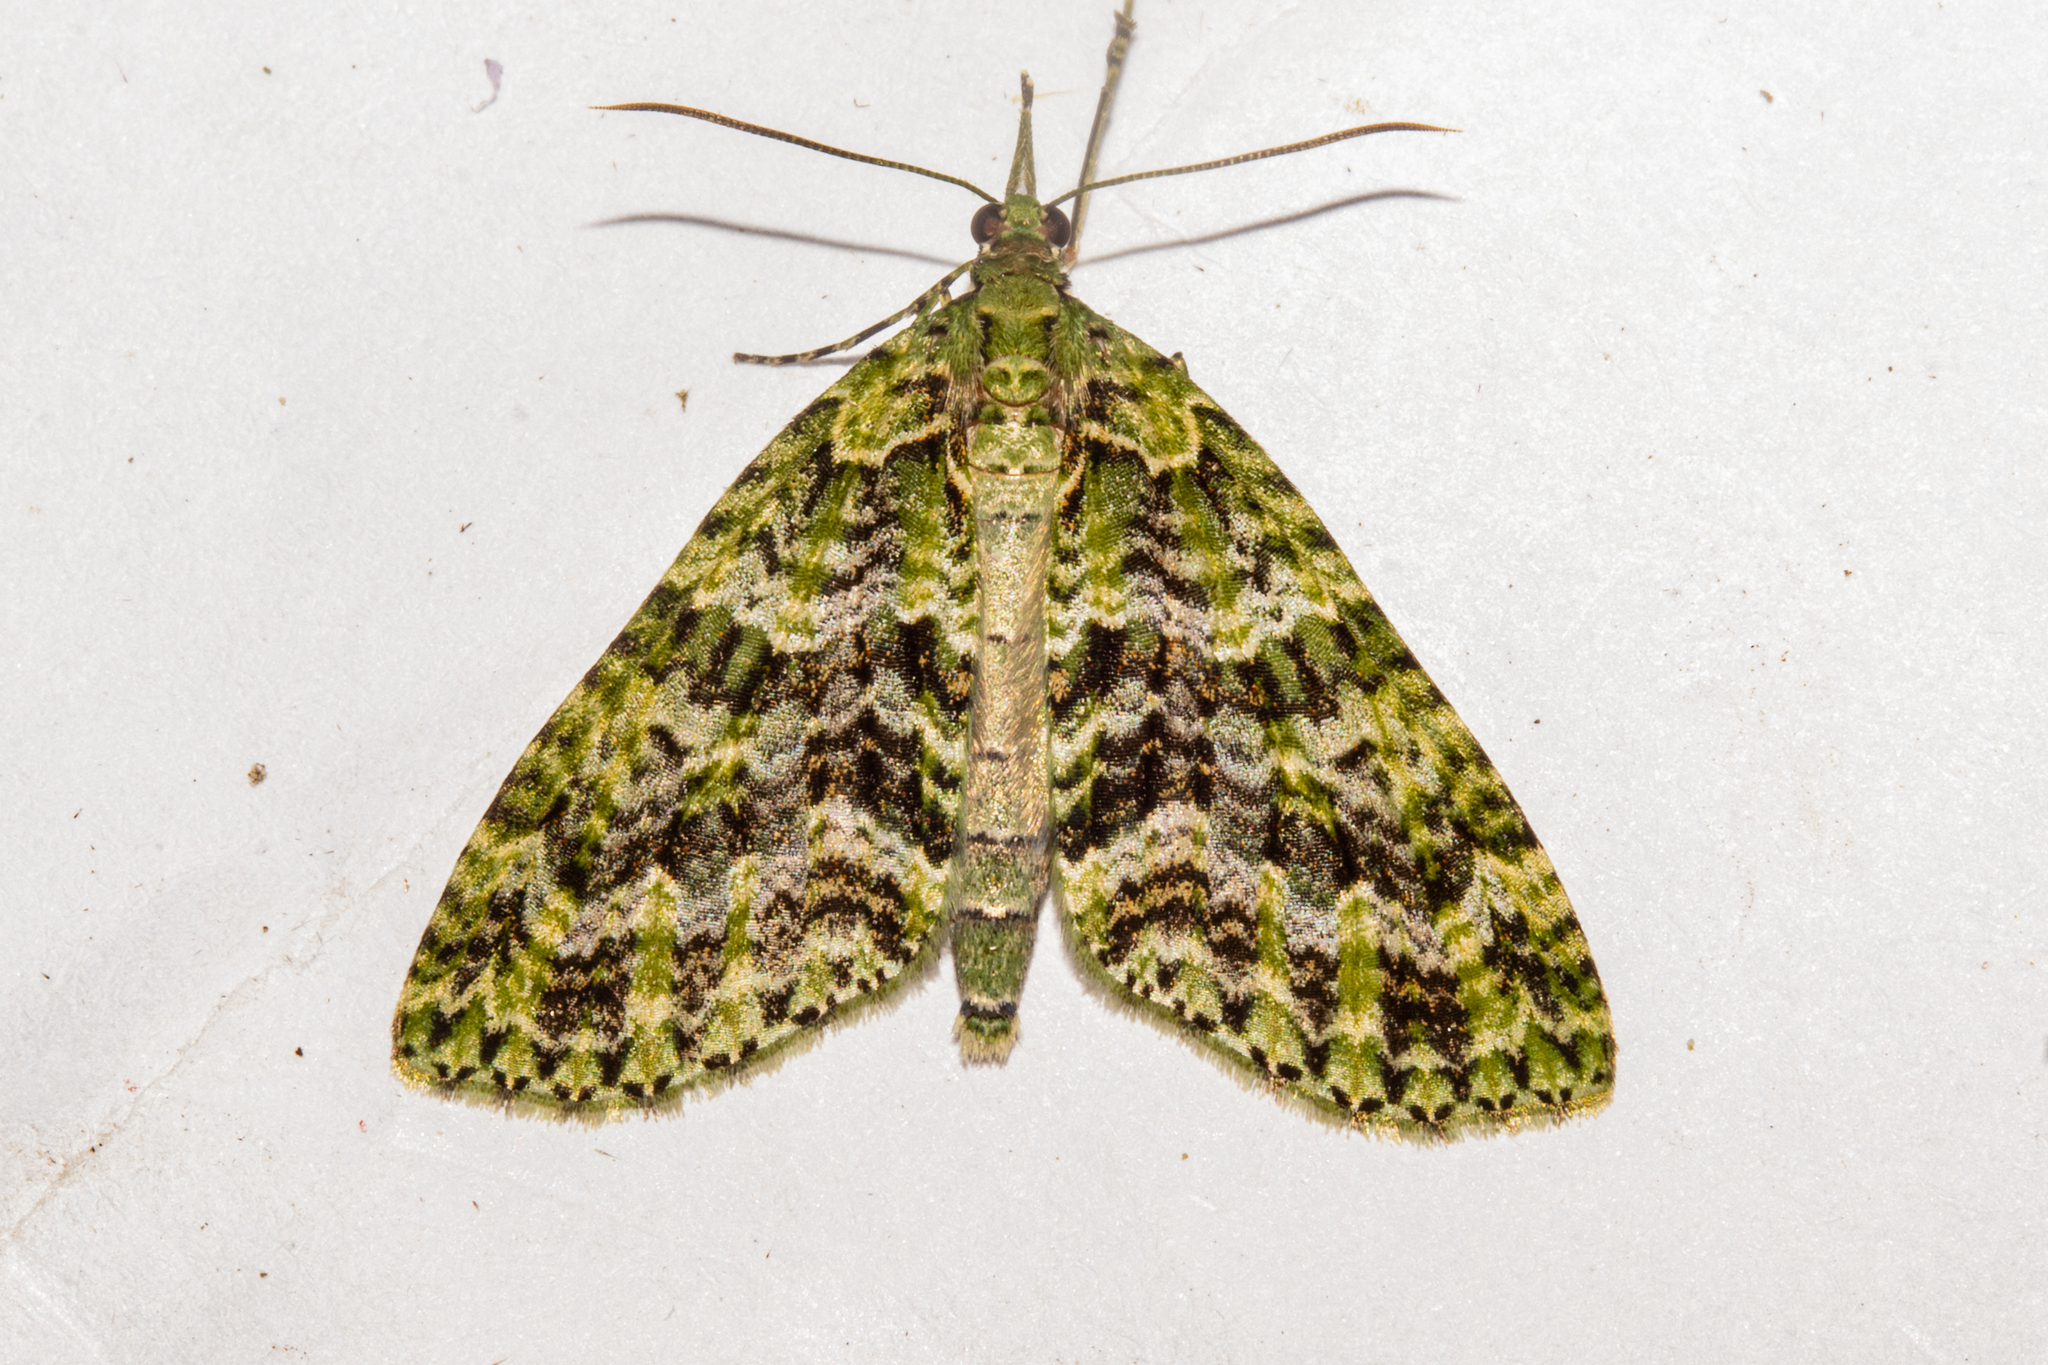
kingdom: Animalia
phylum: Arthropoda
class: Insecta
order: Lepidoptera
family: Geometridae
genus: Tatosoma
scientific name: Tatosoma tipulata
